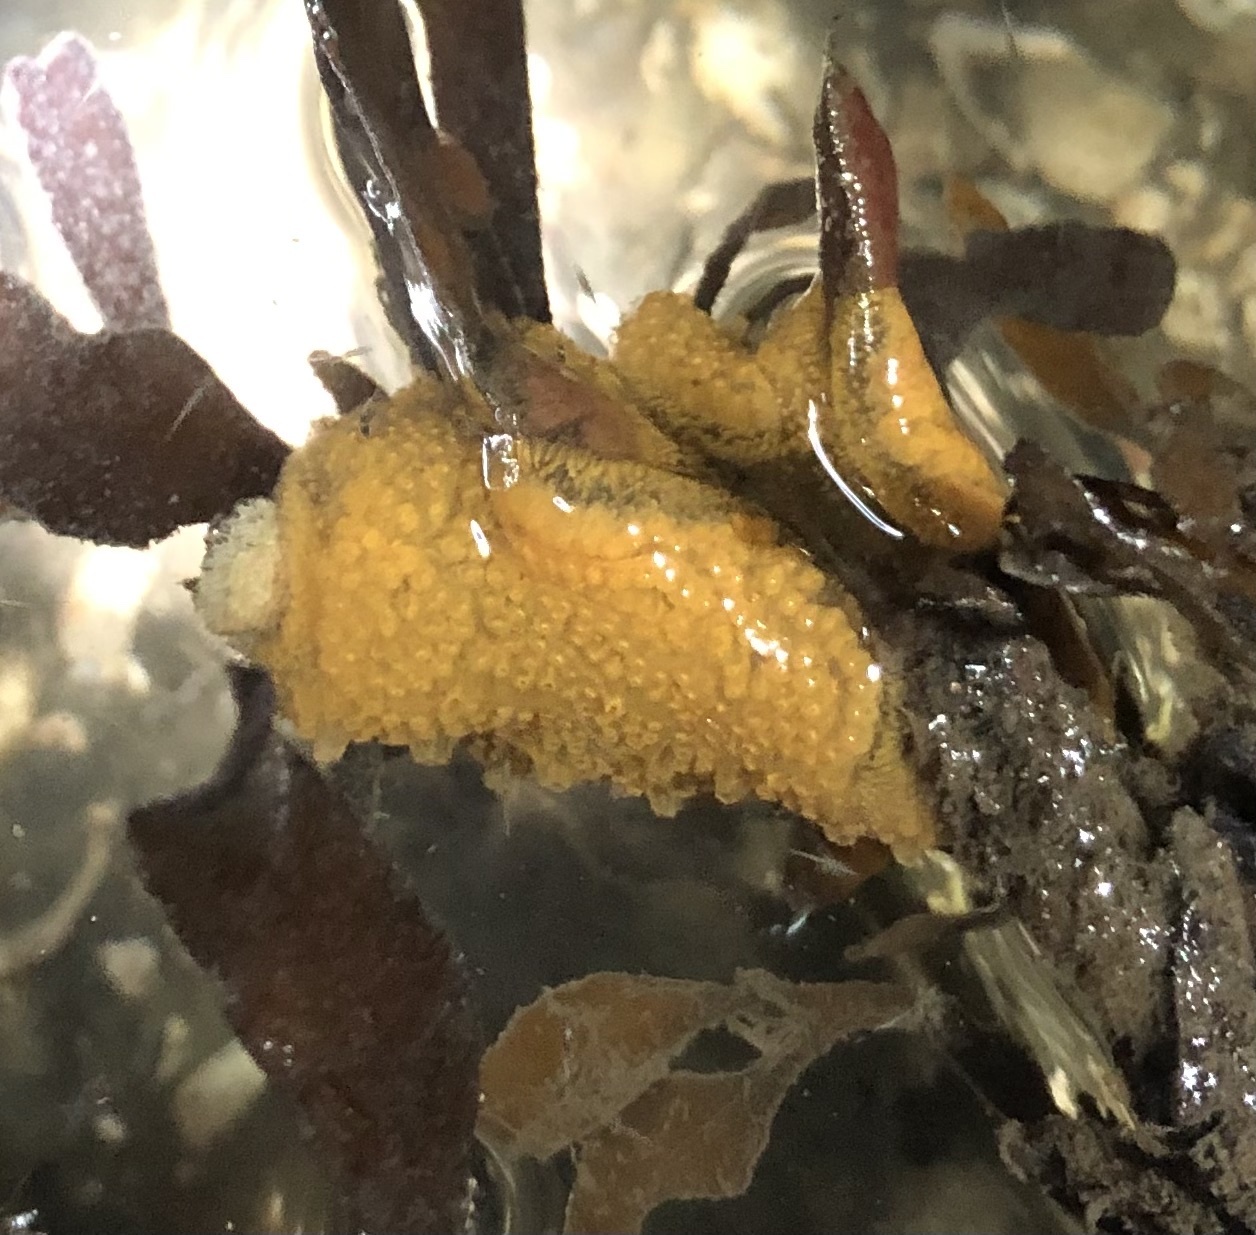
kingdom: Animalia
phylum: Chordata
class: Ascidiacea
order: Stolidobranchia
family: Styelidae
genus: Botrylloides
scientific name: Botrylloides violaceus
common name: Colonial sea squirt
